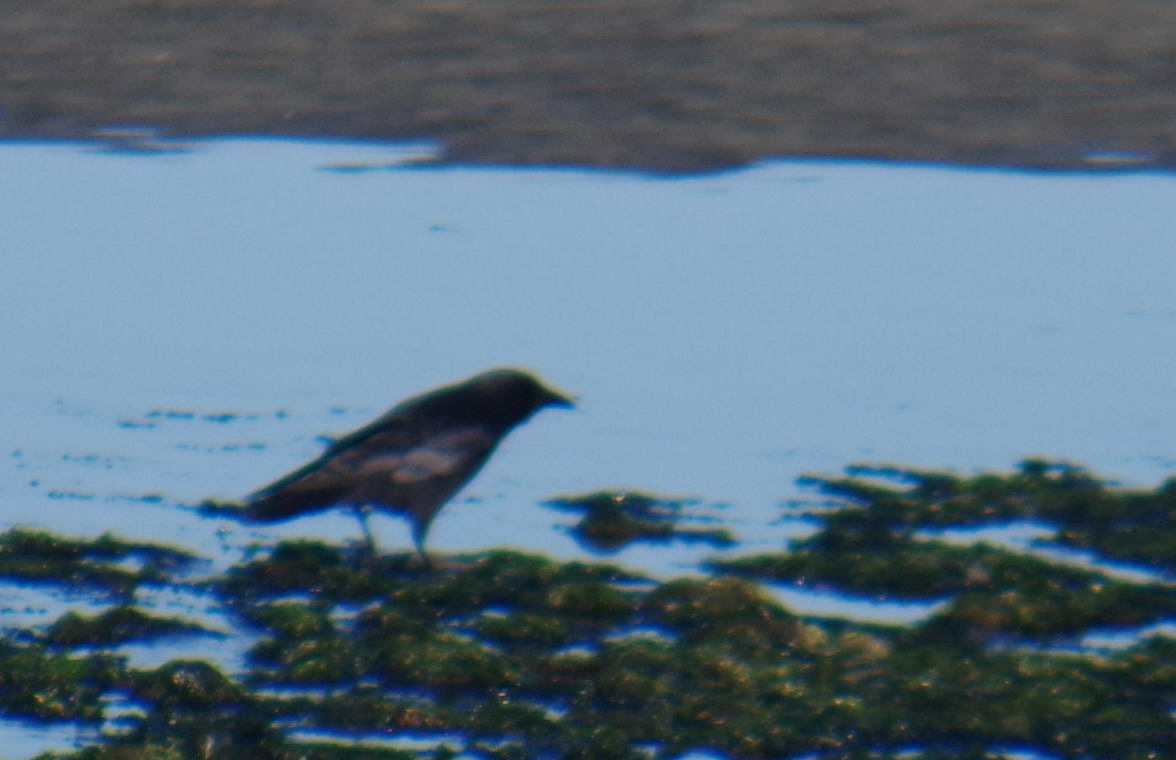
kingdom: Animalia
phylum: Chordata
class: Aves
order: Passeriformes
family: Corvidae
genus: Corvus
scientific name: Corvus brachyrhynchos
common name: American crow
